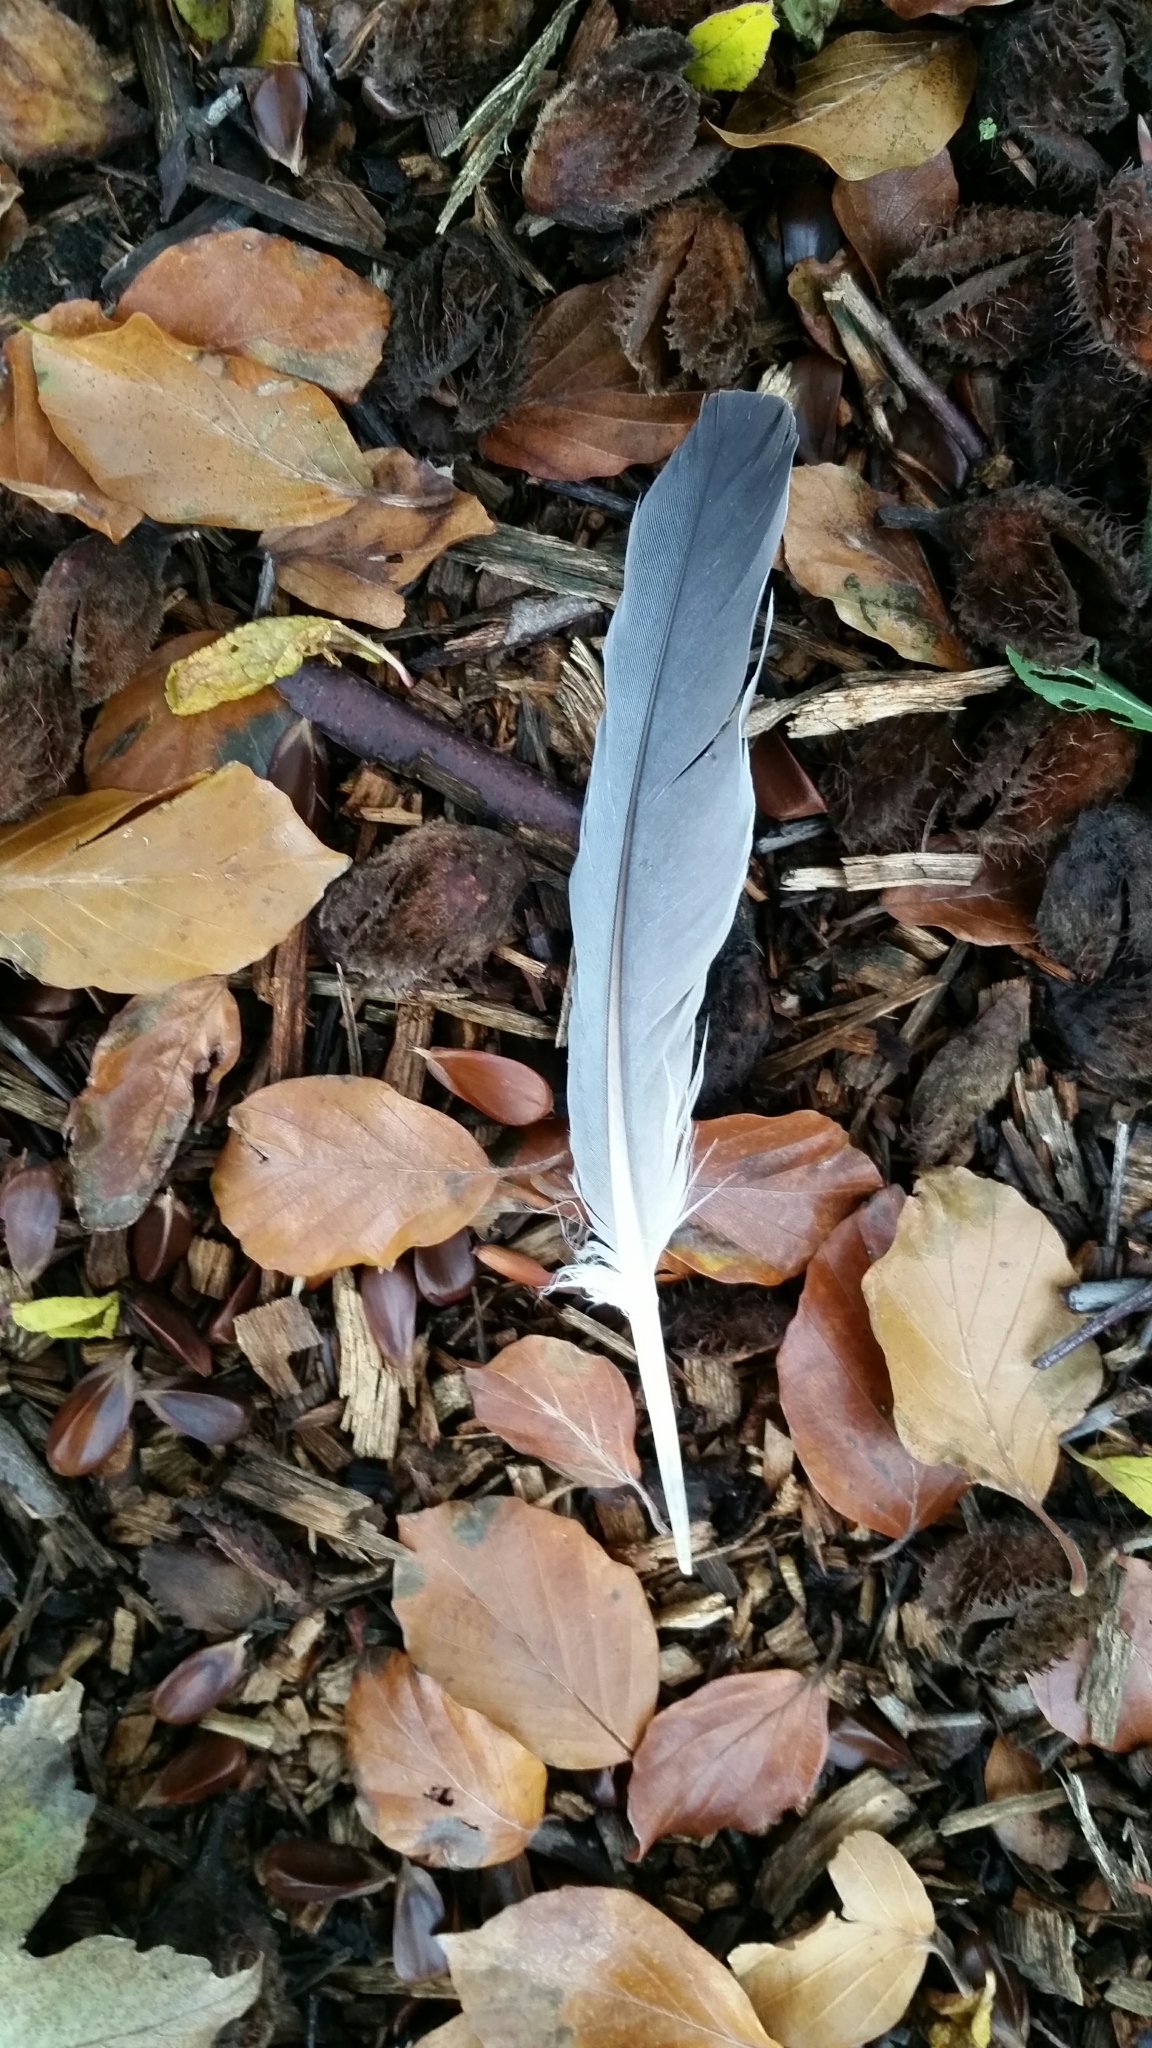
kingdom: Animalia
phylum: Chordata
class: Aves
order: Columbiformes
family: Columbidae
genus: Columba
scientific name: Columba palumbus
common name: Common wood pigeon
